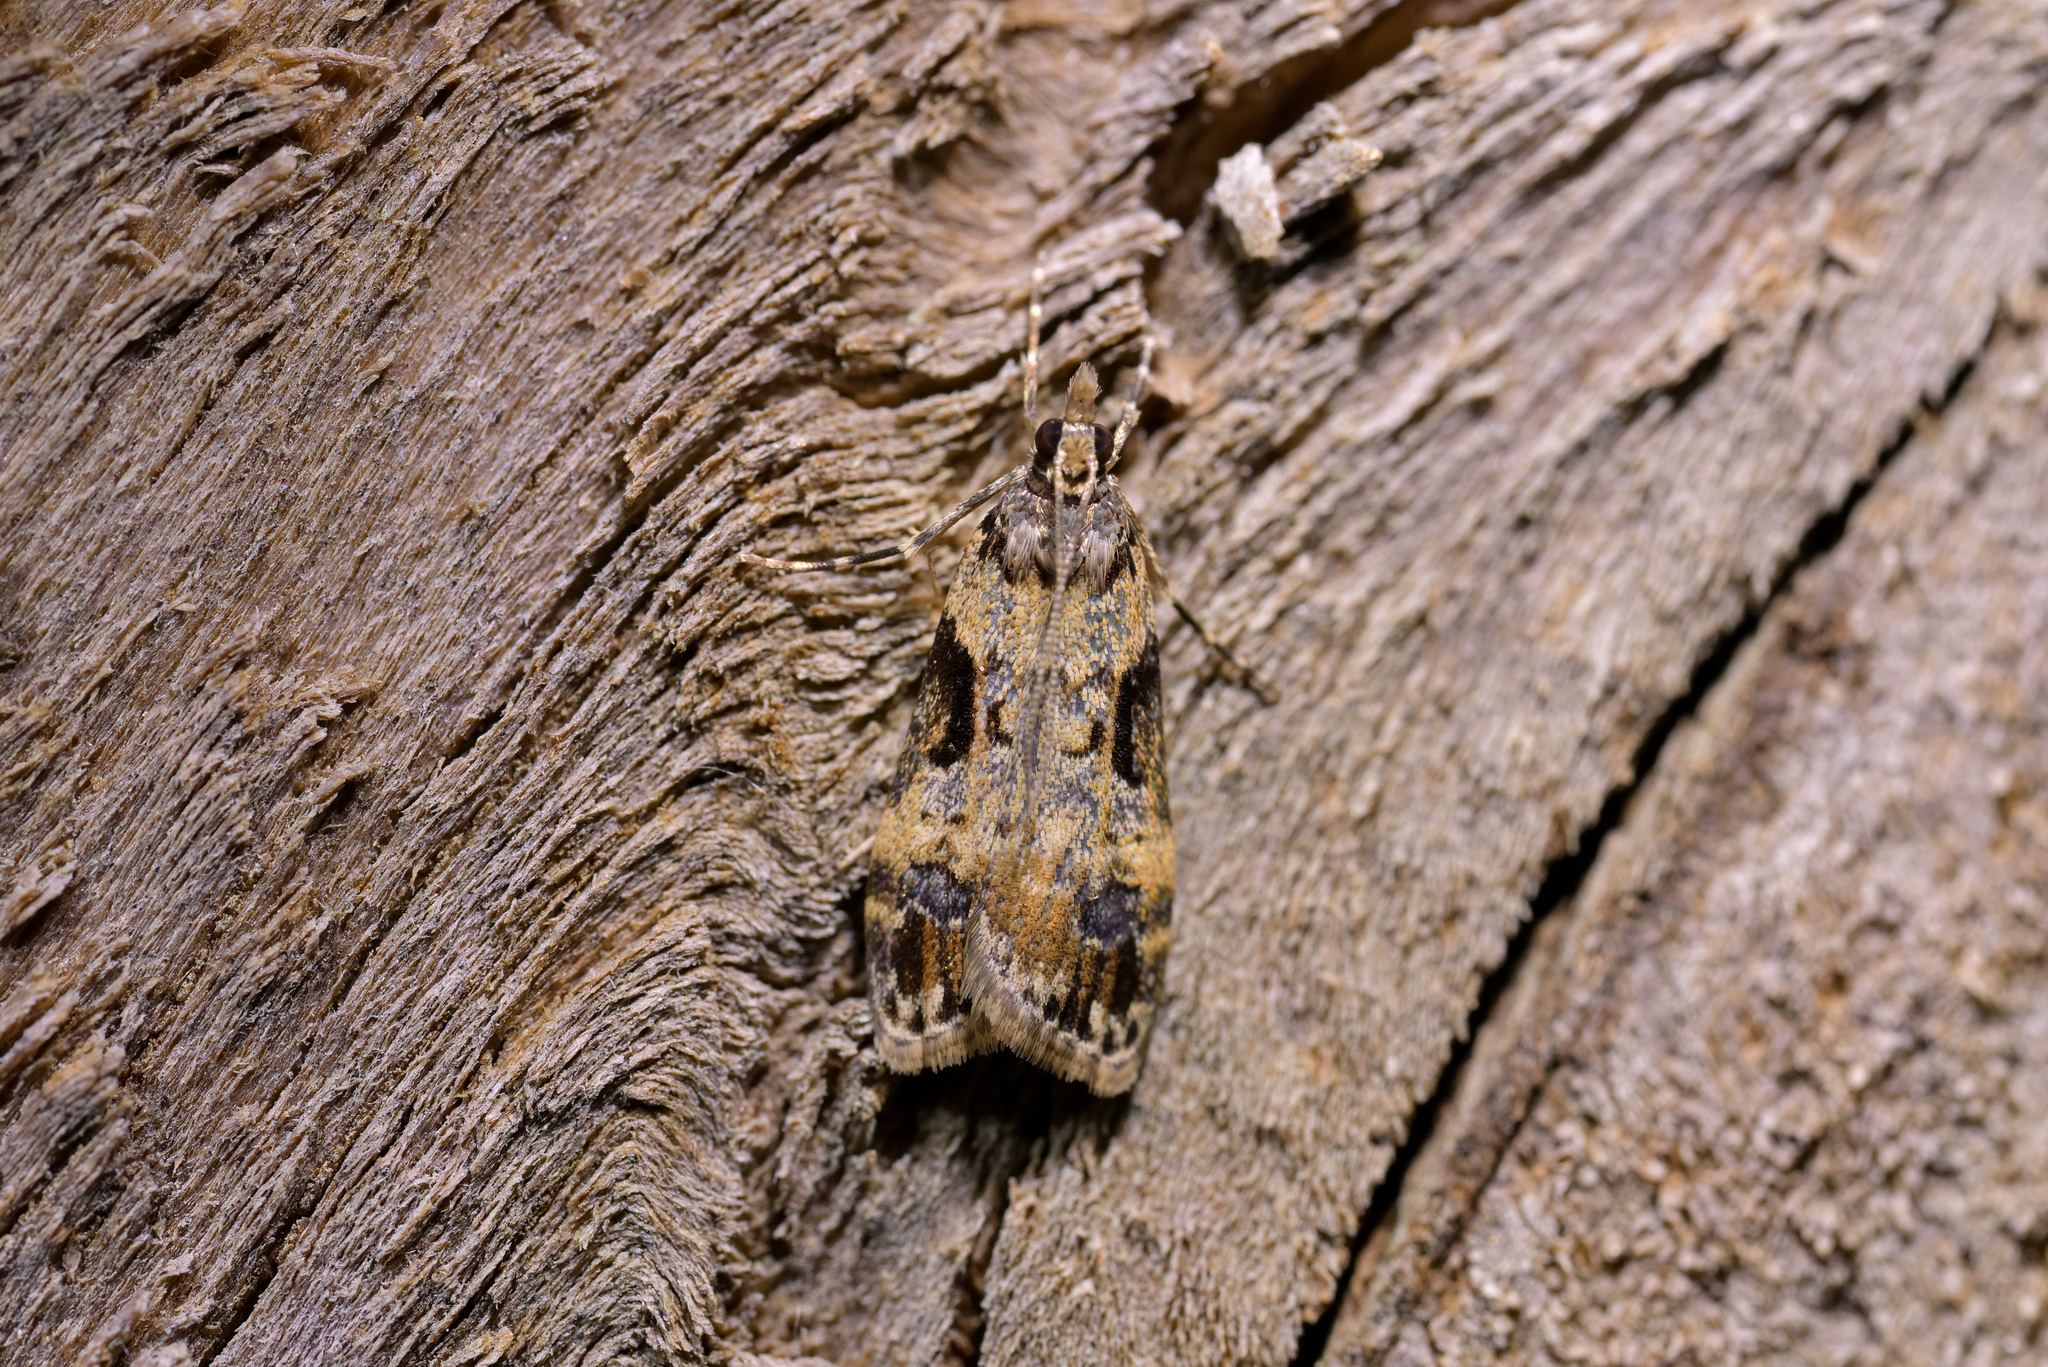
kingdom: Animalia
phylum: Arthropoda
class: Insecta
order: Lepidoptera
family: Crambidae
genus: Scoparia
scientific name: Scoparia acharis
